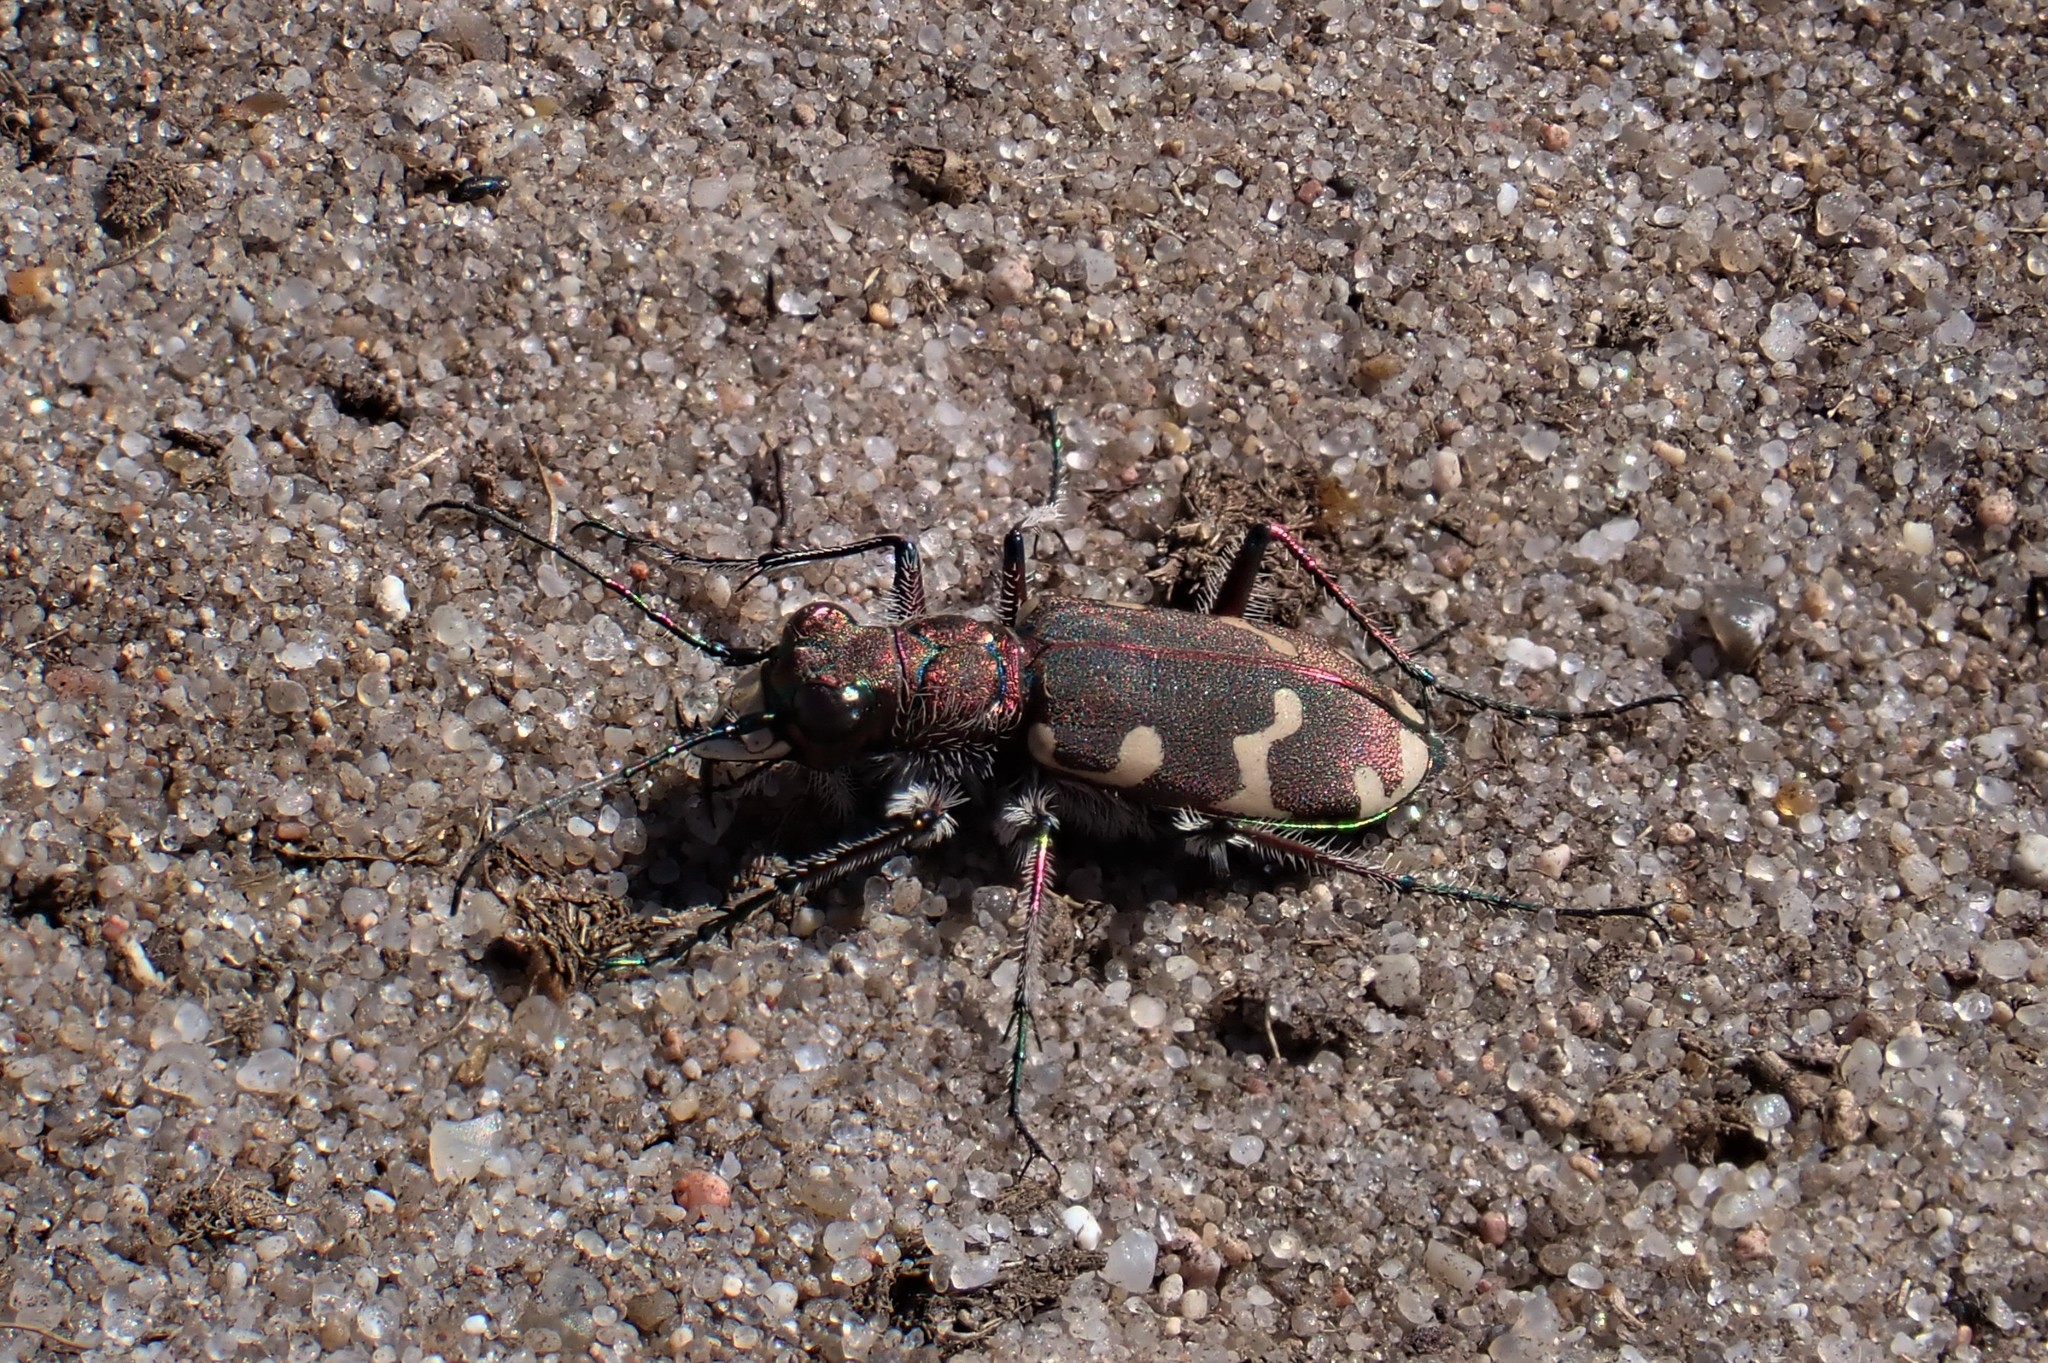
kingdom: Animalia
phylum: Arthropoda
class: Insecta
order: Coleoptera
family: Carabidae
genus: Cicindela
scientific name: Cicindela hybrida
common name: Northern dune tiger beetle
